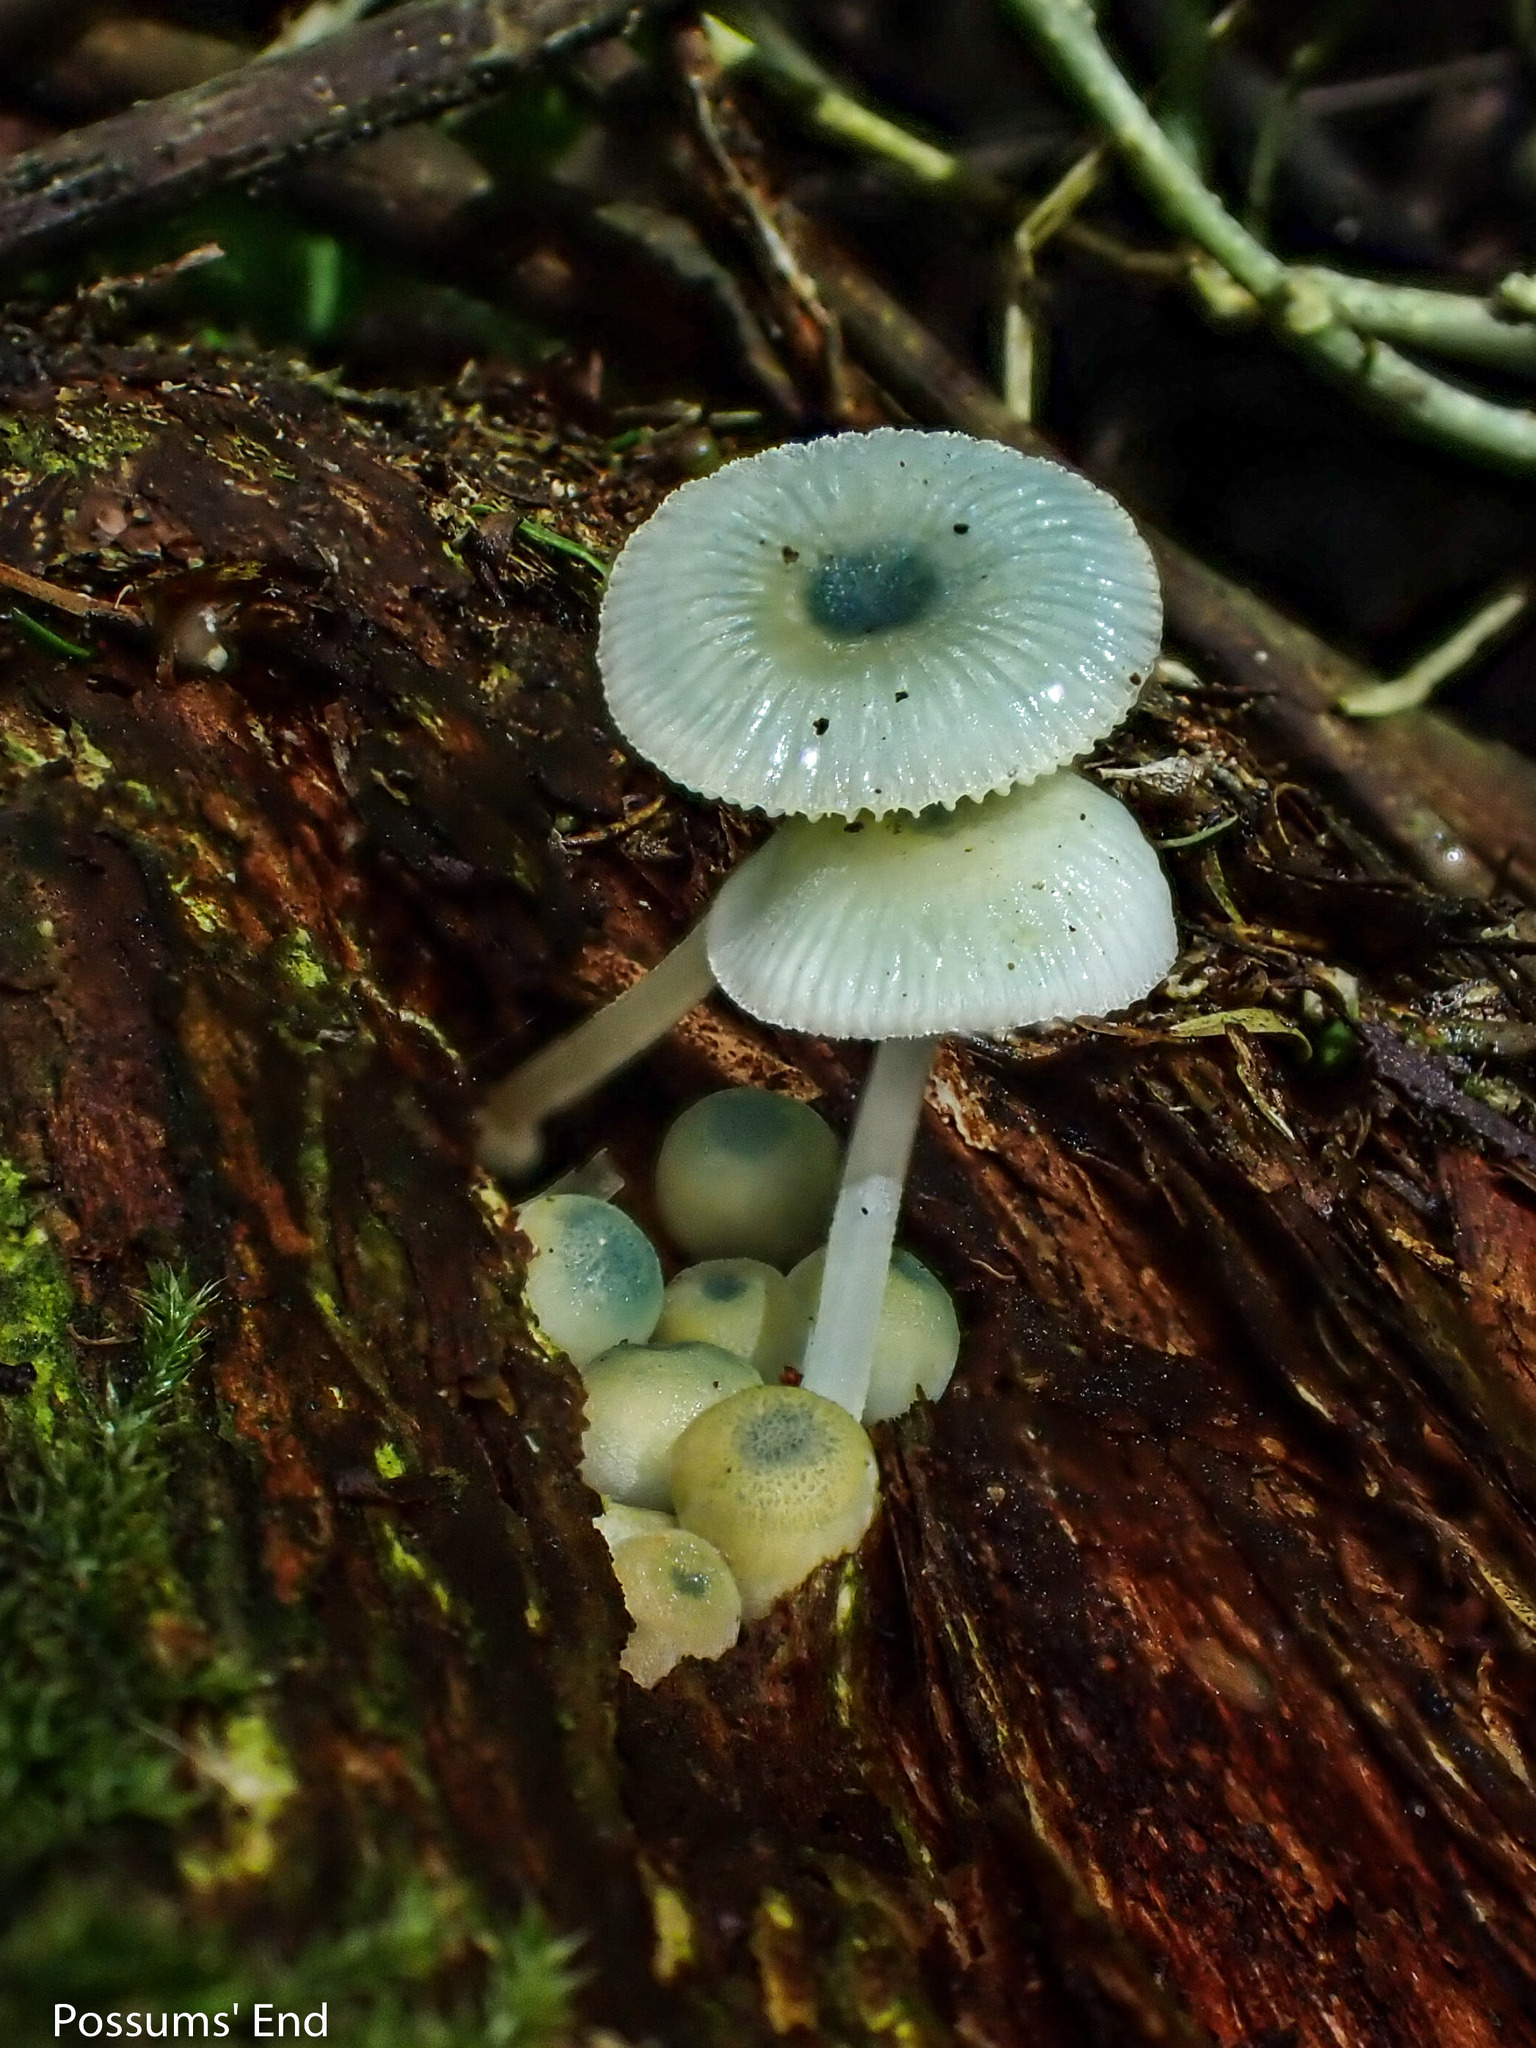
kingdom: Fungi
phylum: Basidiomycota
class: Agaricomycetes
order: Agaricales
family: Mycenaceae
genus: Mycena
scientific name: Mycena interrupta
